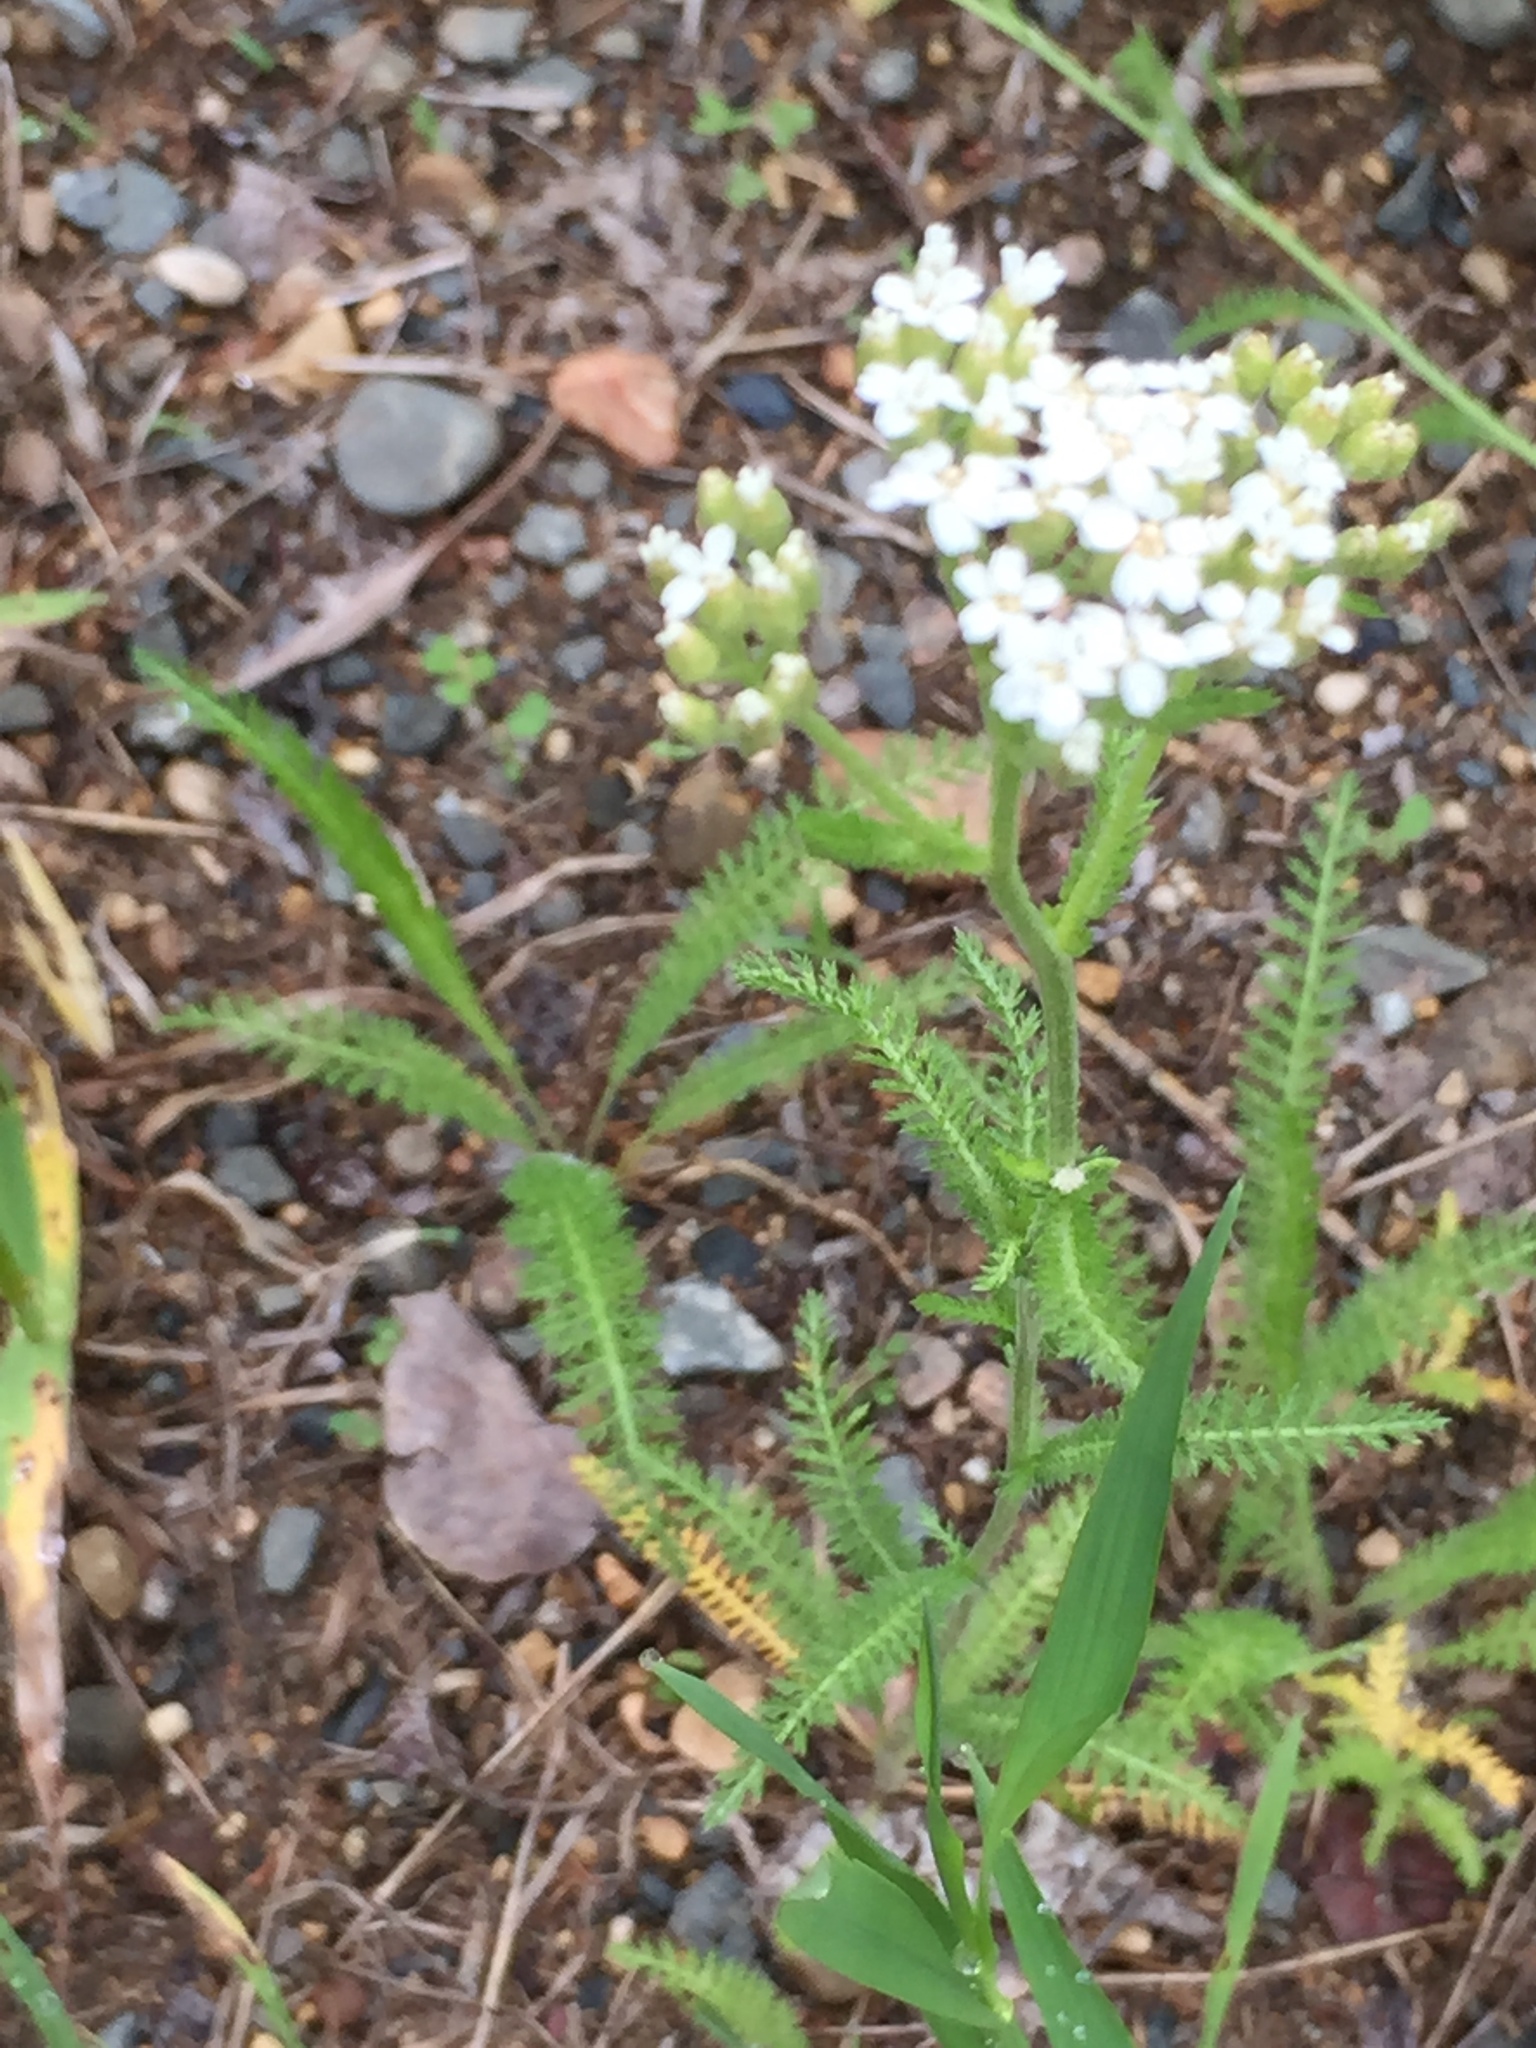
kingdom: Plantae
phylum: Tracheophyta
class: Magnoliopsida
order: Asterales
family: Asteraceae
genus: Achillea
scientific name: Achillea millefolium
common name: Yarrow
